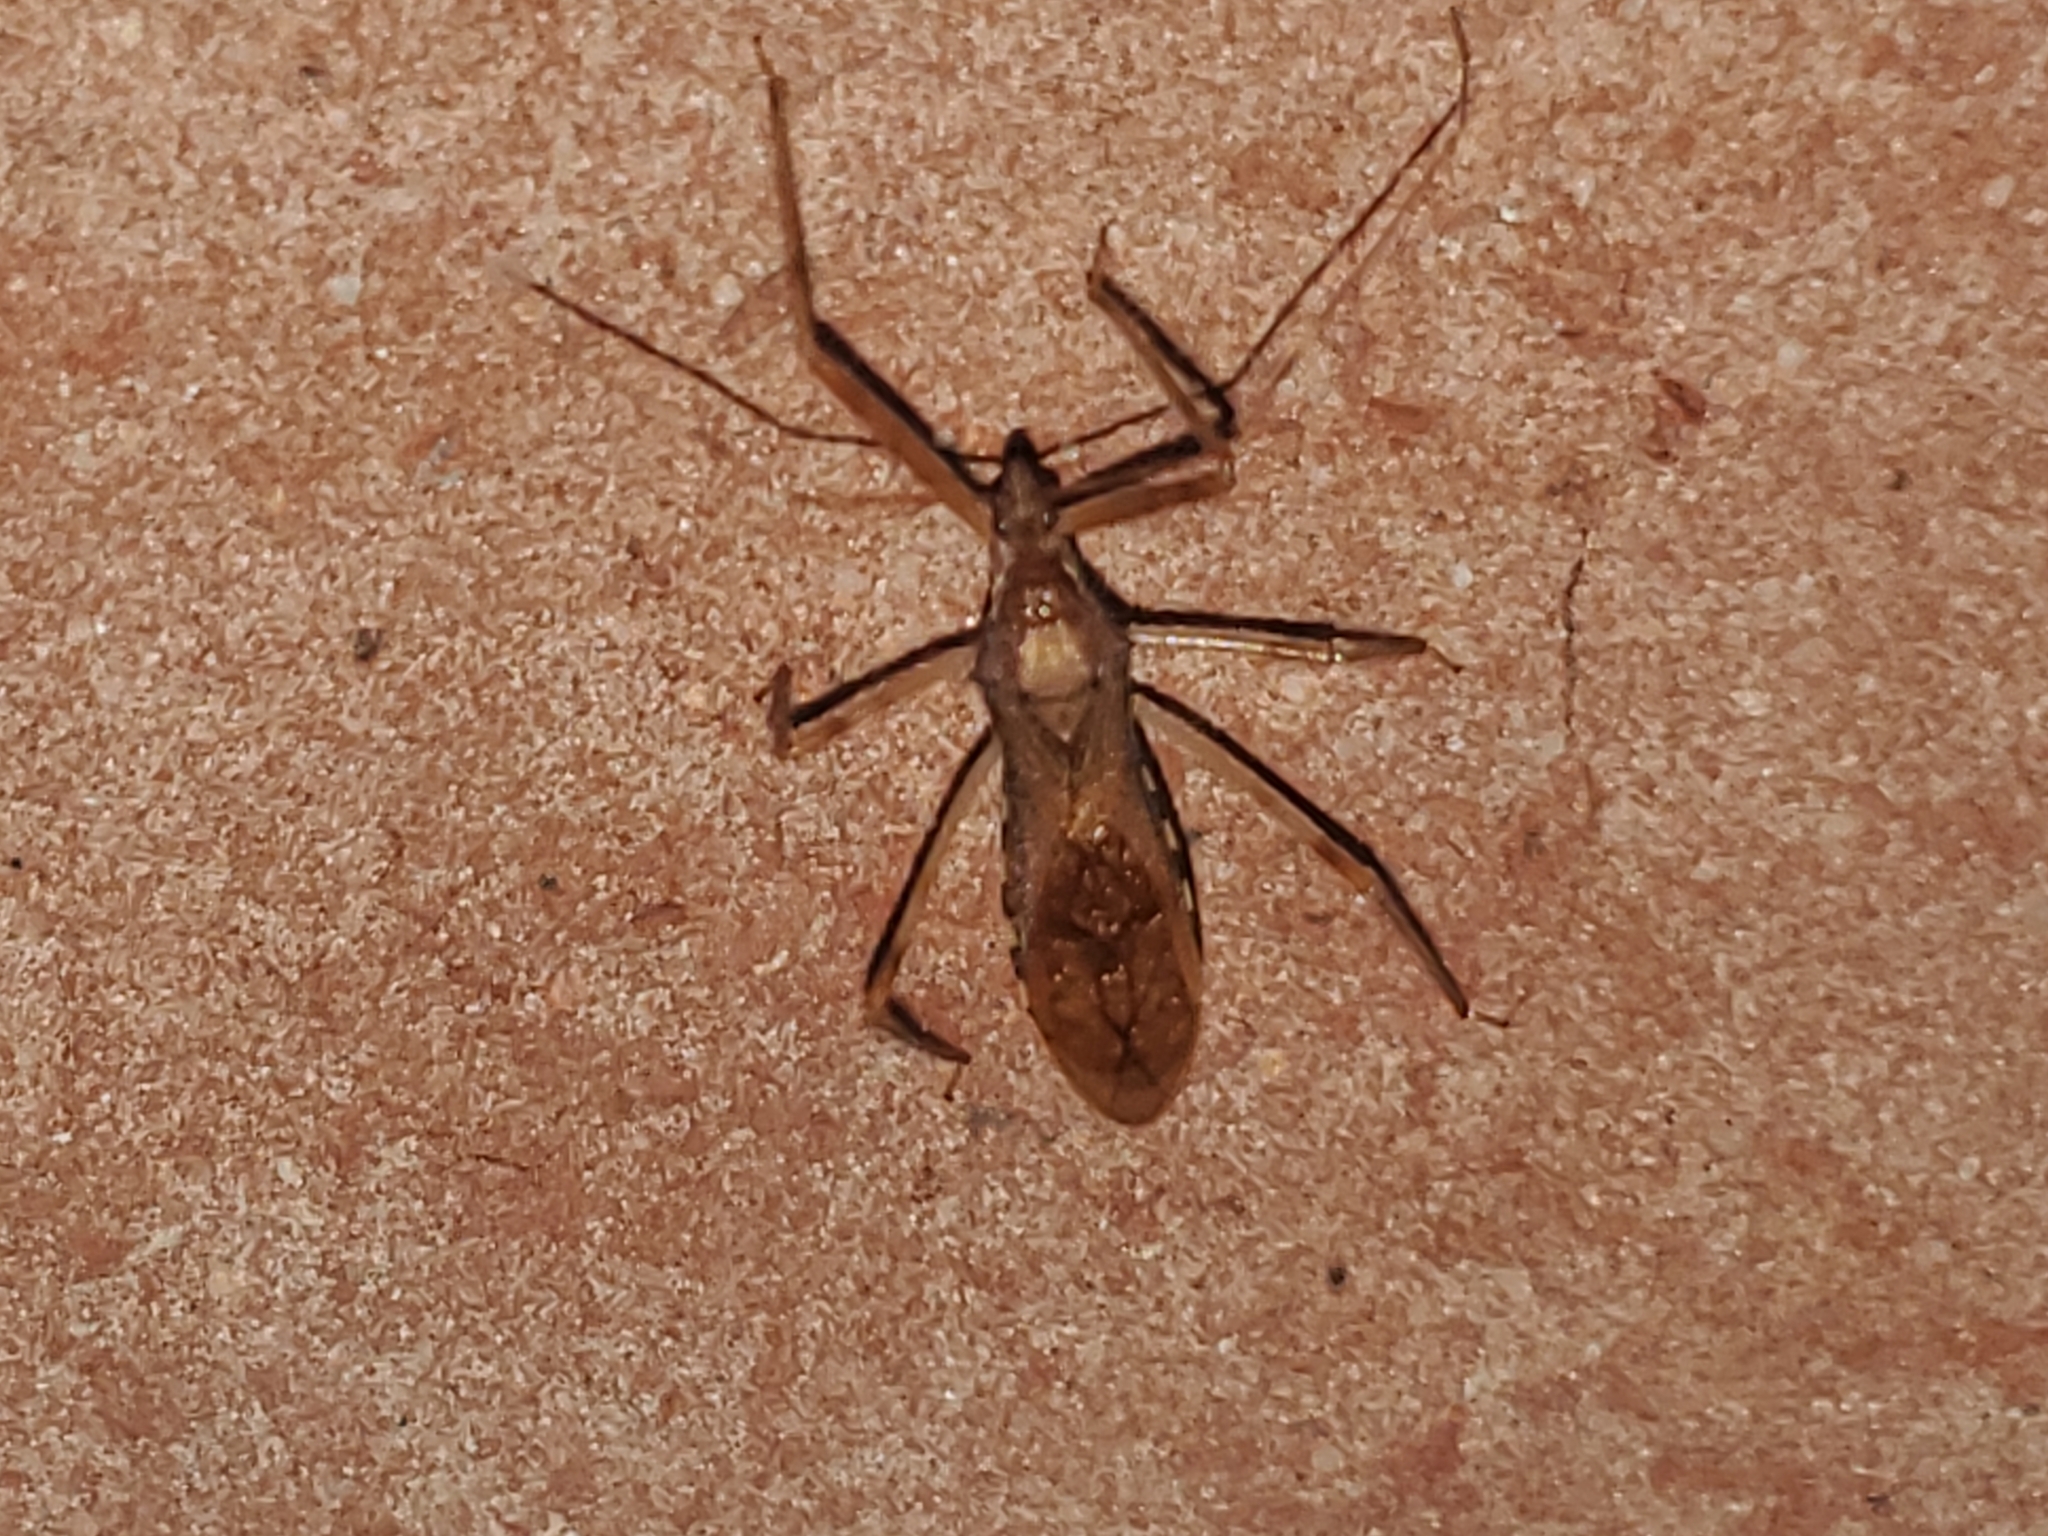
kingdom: Animalia
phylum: Arthropoda
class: Insecta
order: Hemiptera
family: Reduviidae
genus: Rocconota
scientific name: Rocconota annulicornis
